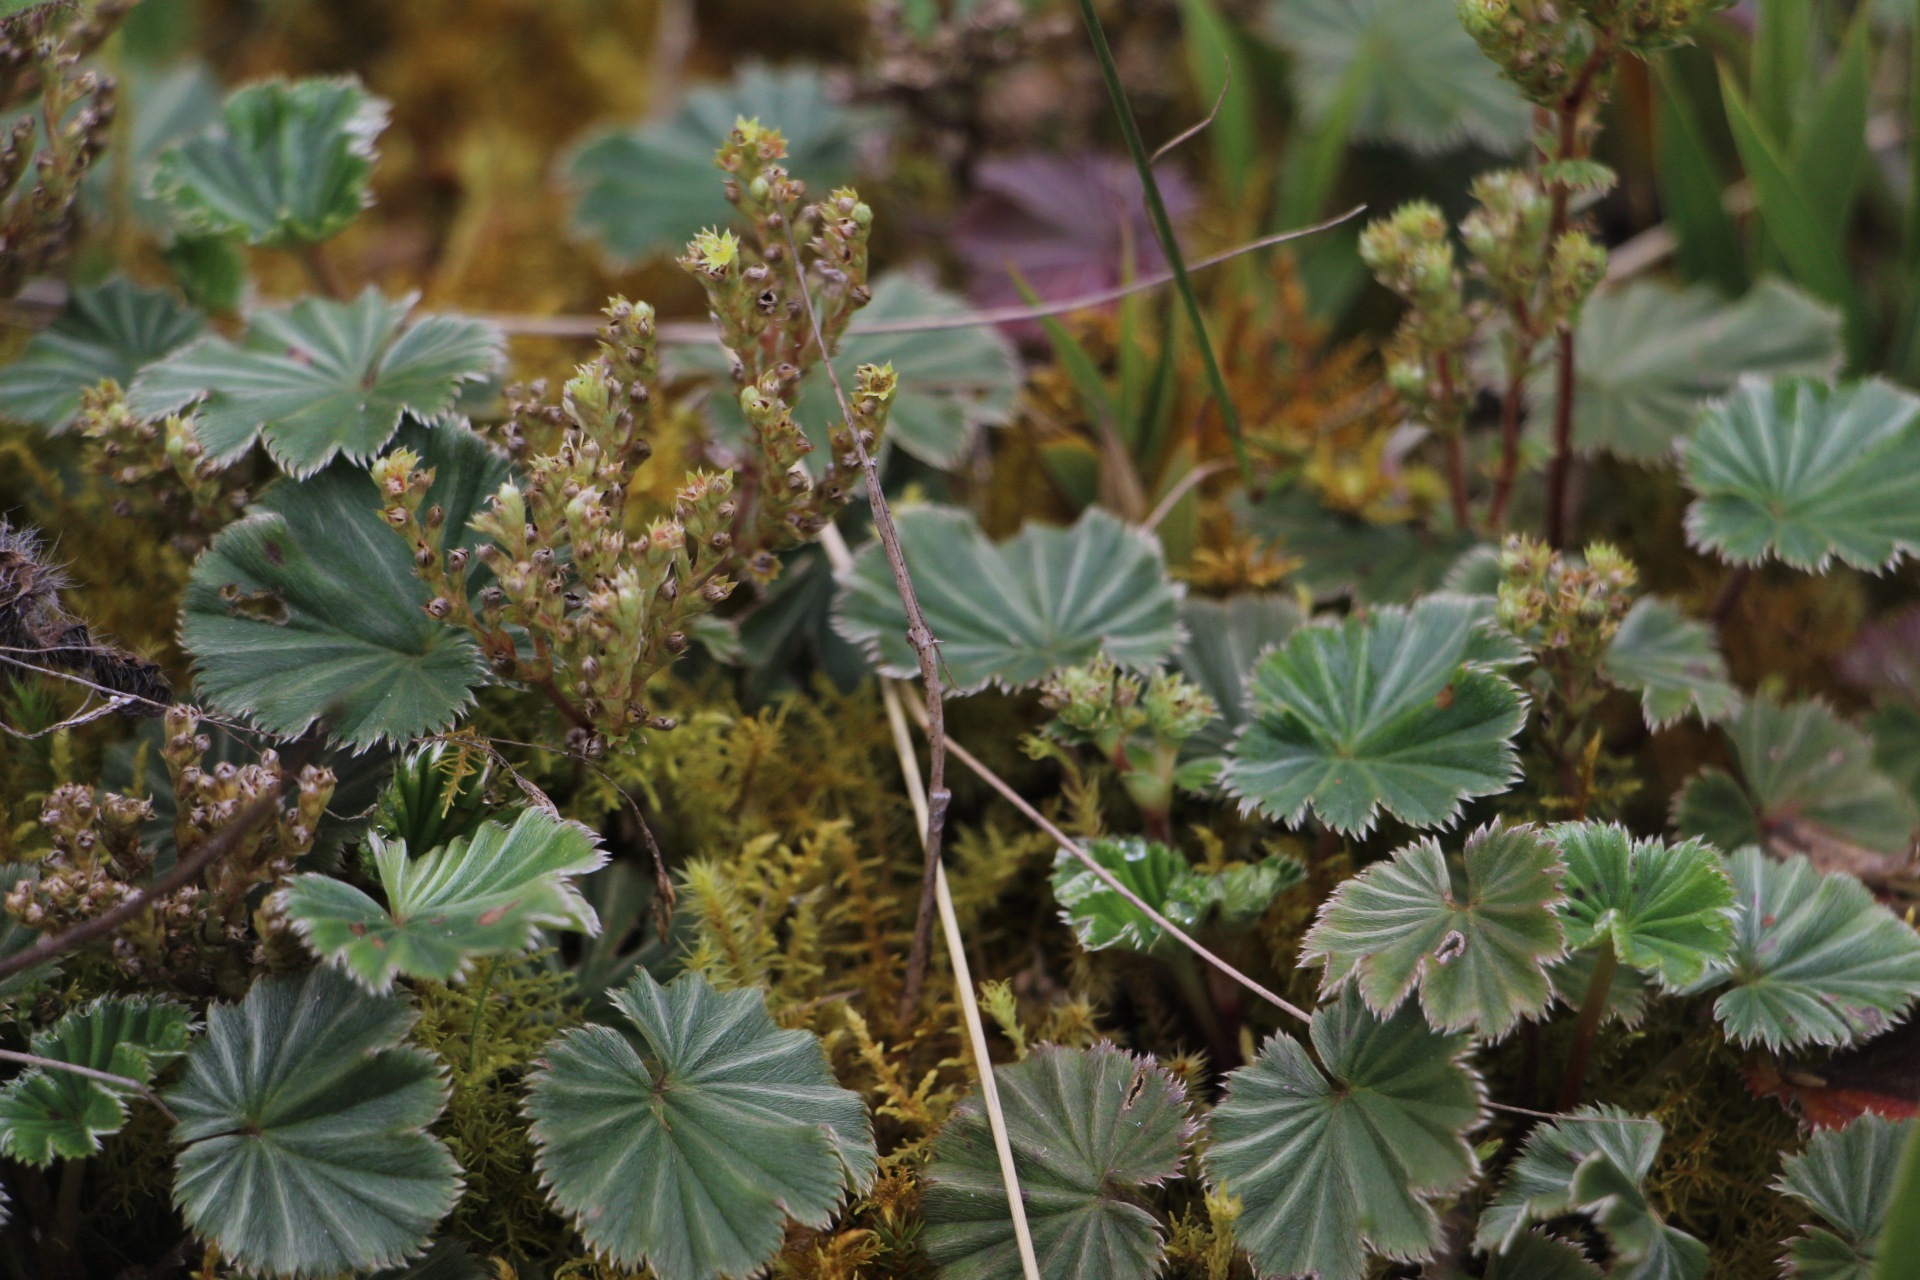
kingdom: Plantae
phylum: Tracheophyta
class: Magnoliopsida
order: Rosales
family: Rosaceae
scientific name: Rosaceae
